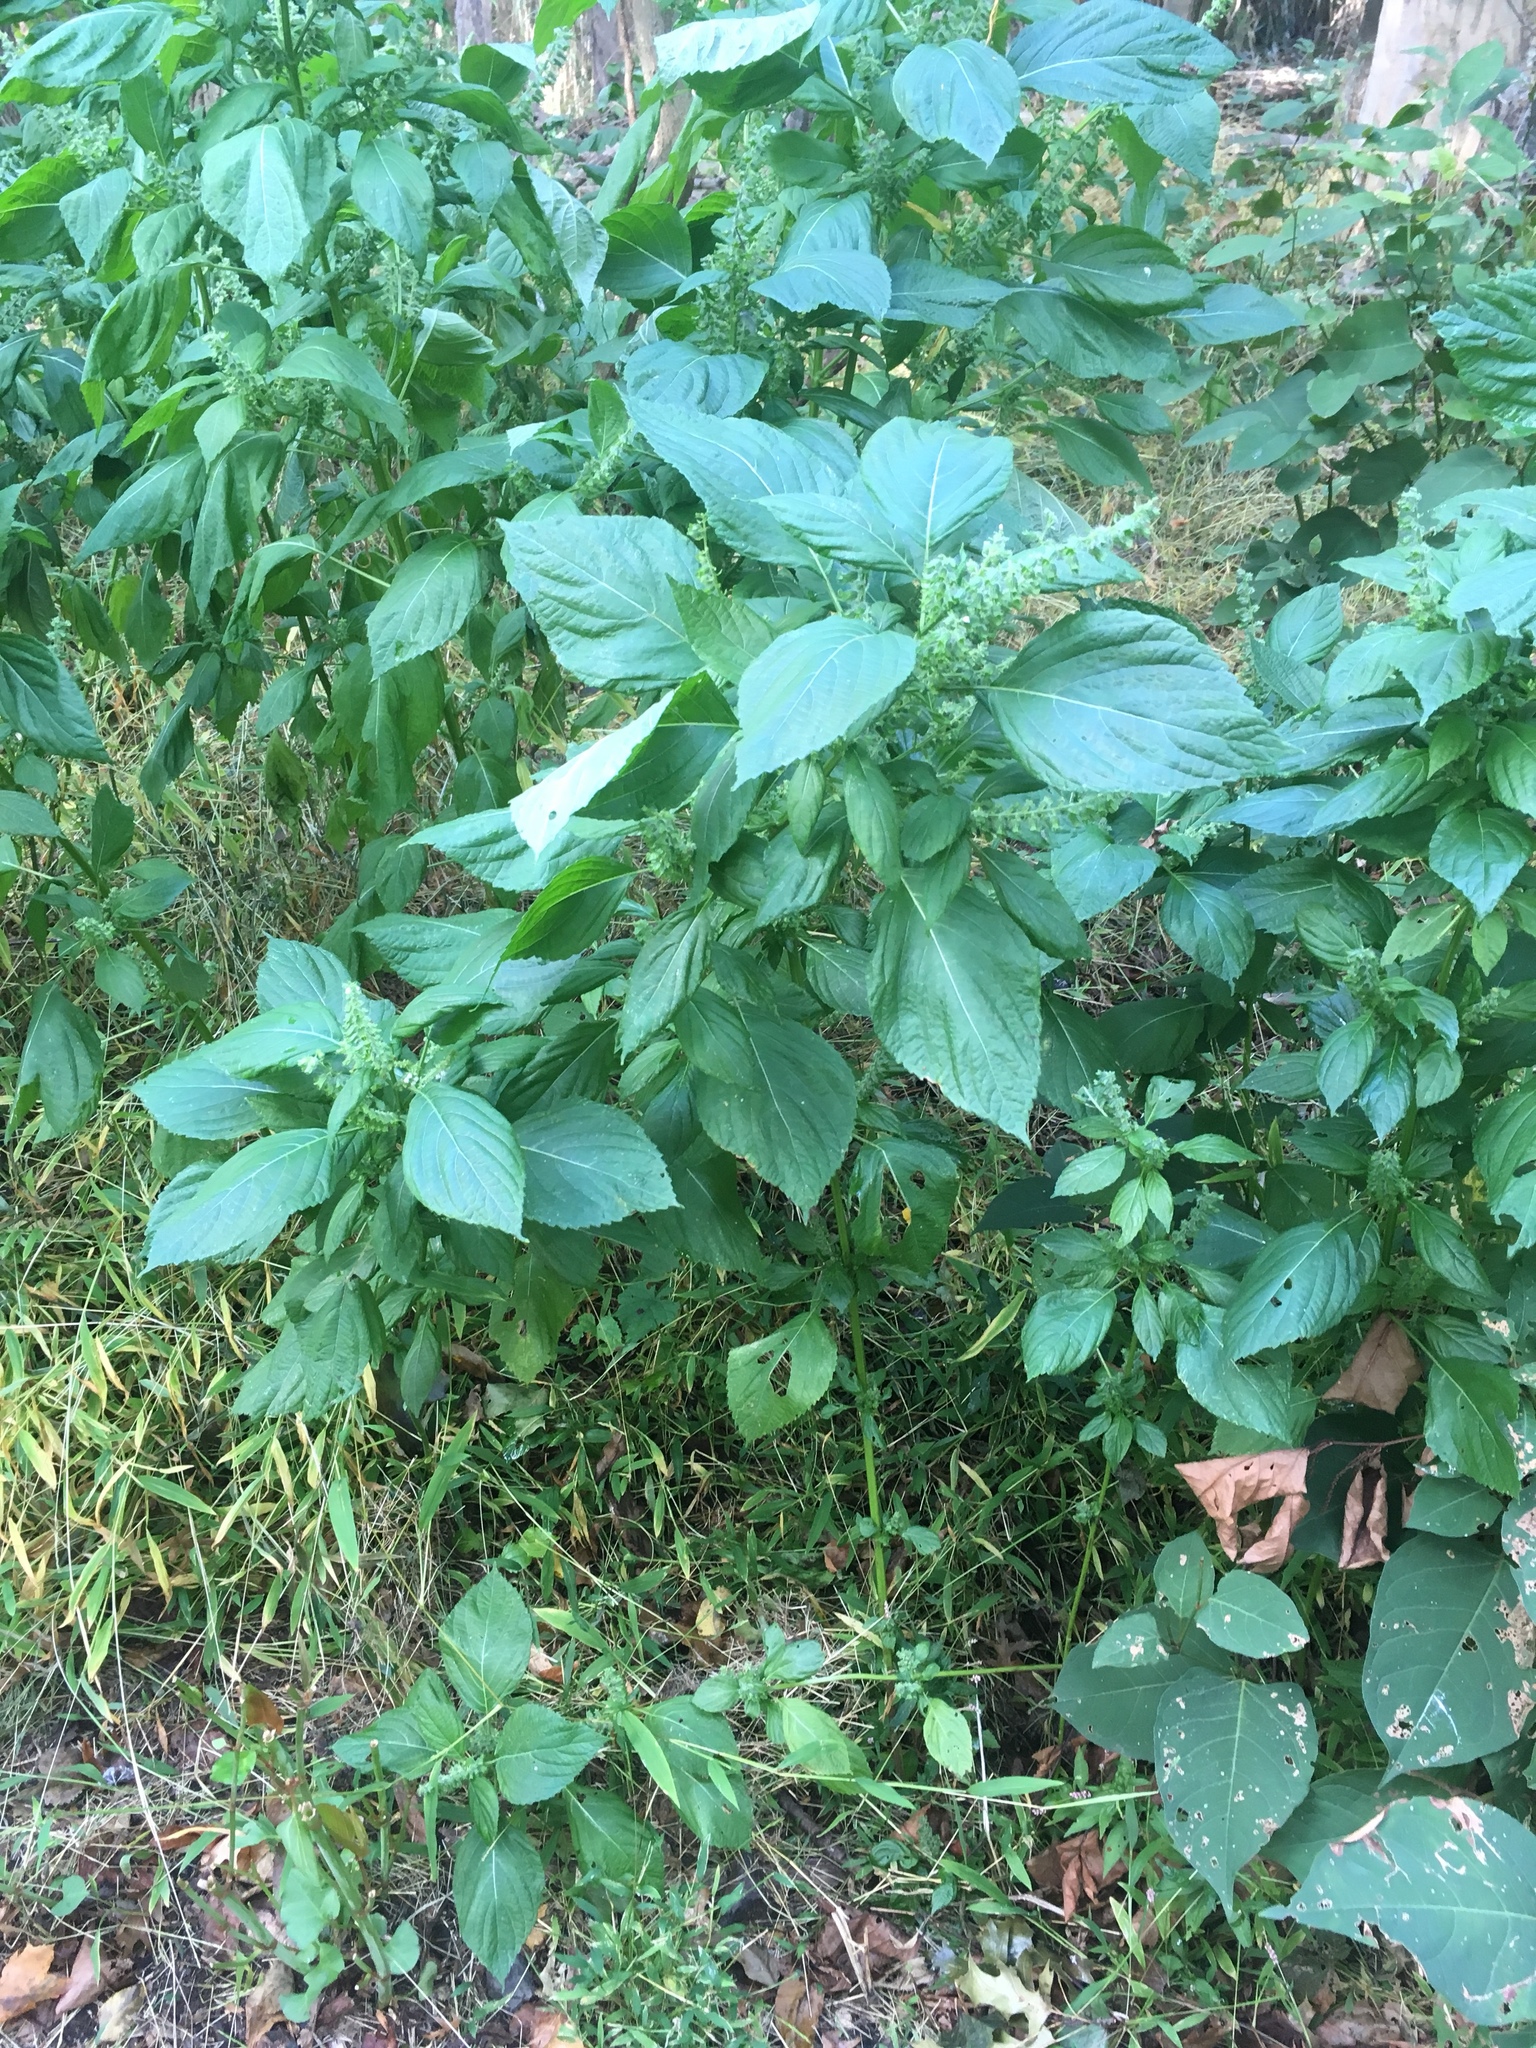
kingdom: Plantae
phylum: Tracheophyta
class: Magnoliopsida
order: Lamiales
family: Lamiaceae
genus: Perilla
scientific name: Perilla frutescens
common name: Perilla
